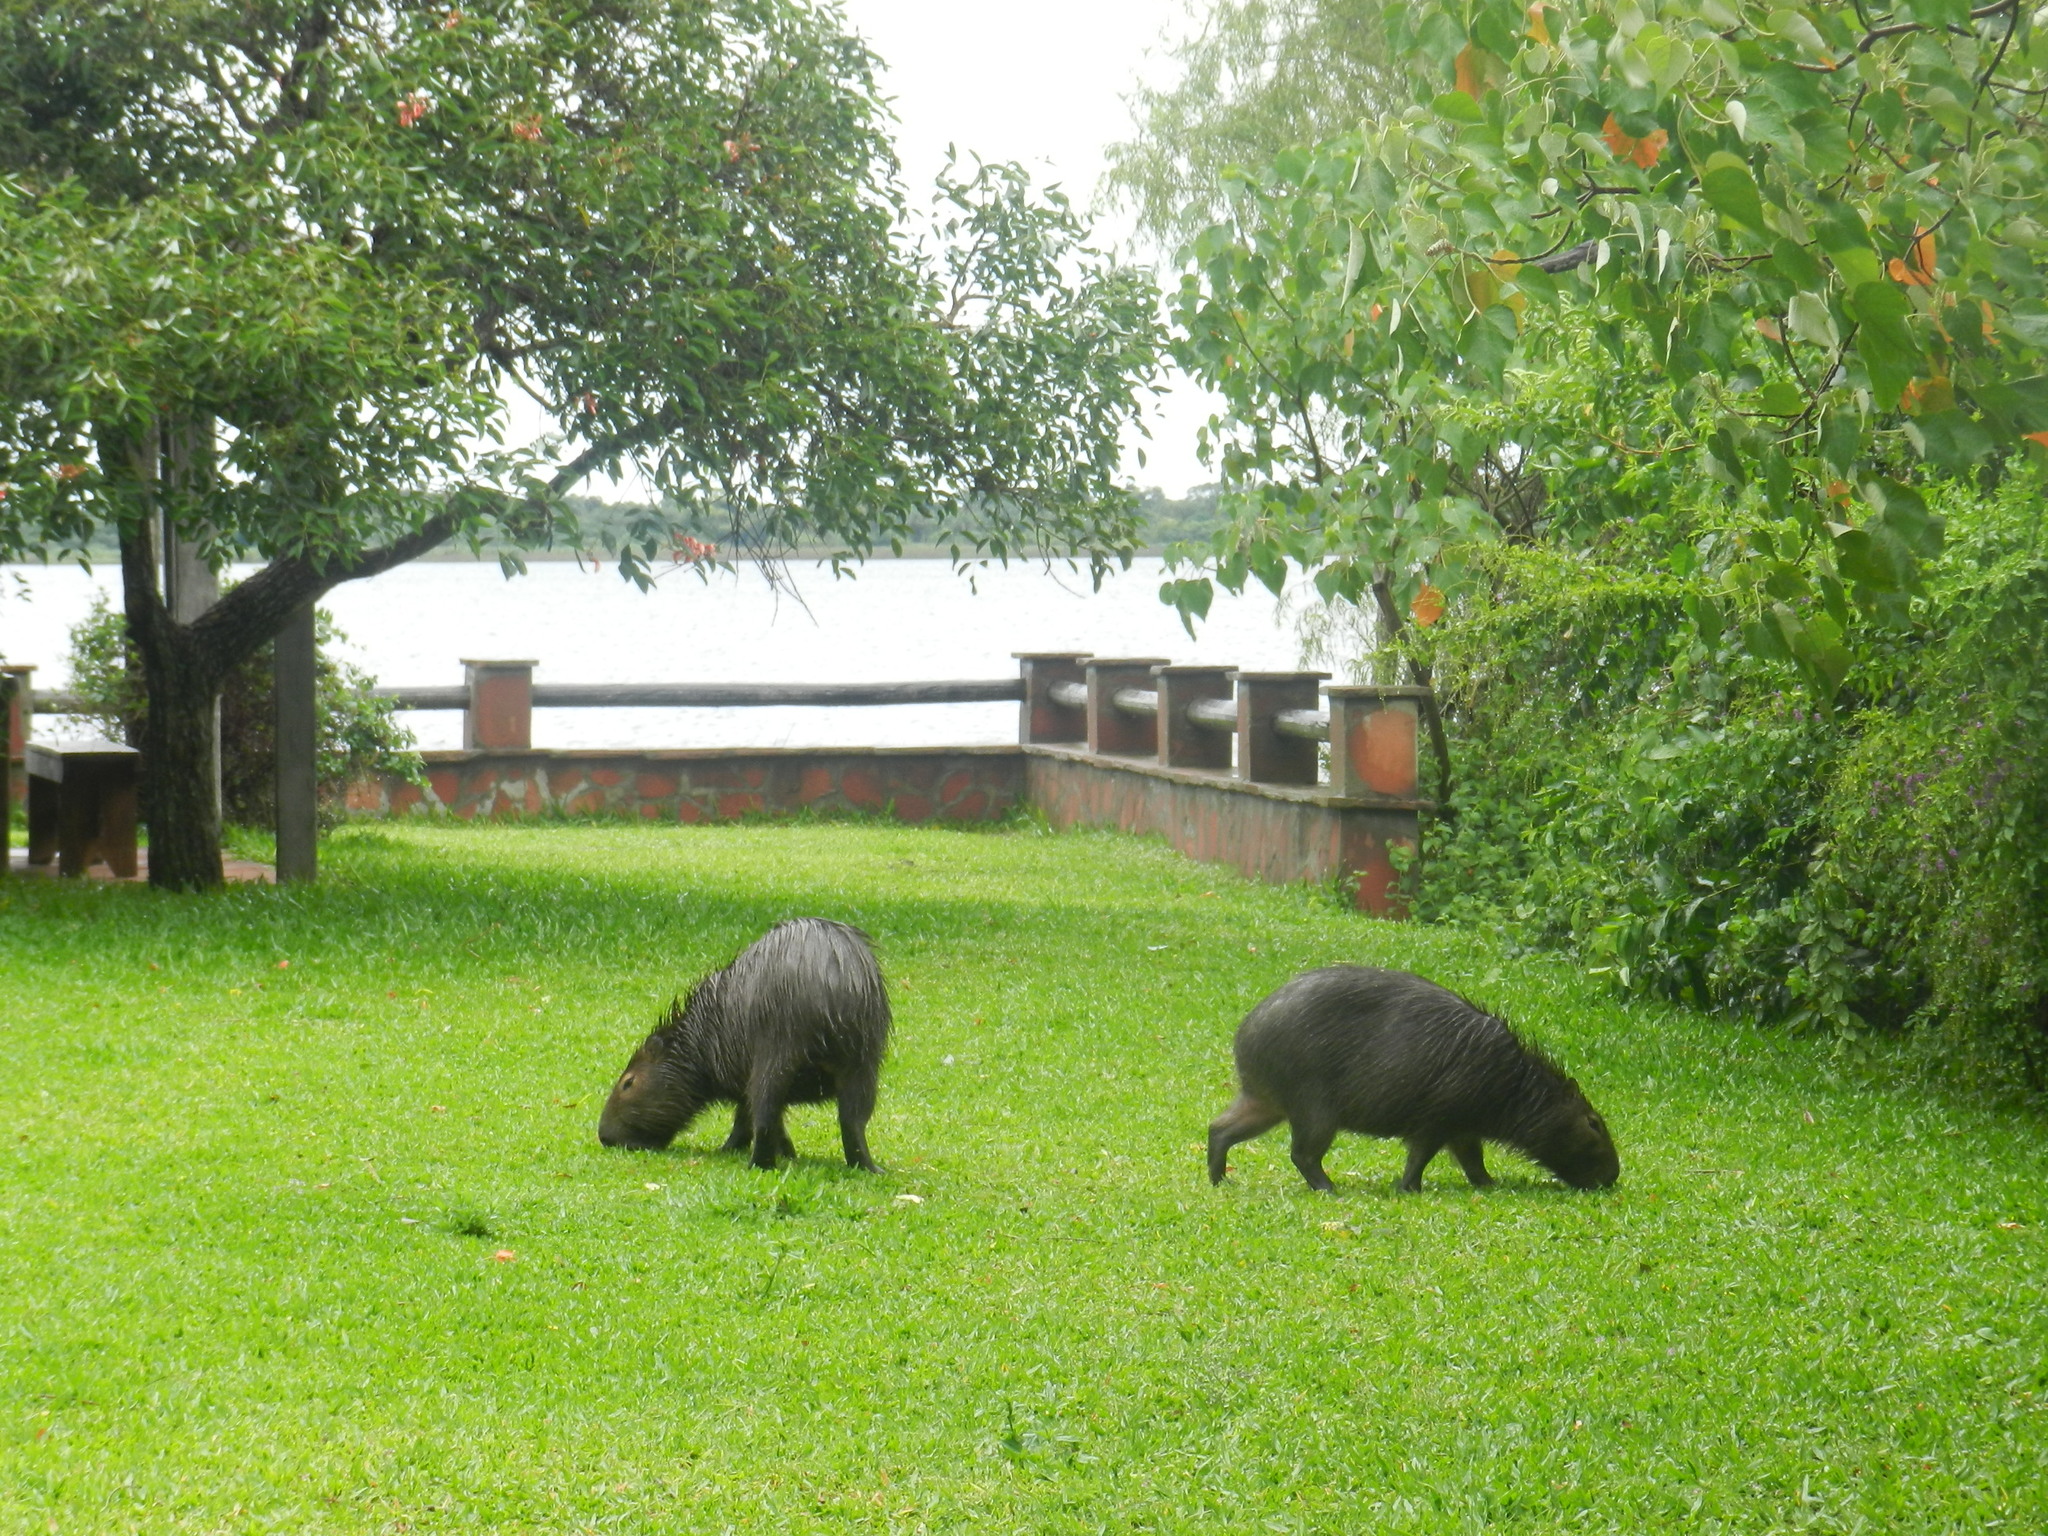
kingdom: Animalia
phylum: Chordata
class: Mammalia
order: Rodentia
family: Caviidae
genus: Hydrochoerus
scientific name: Hydrochoerus hydrochaeris
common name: Capybara
